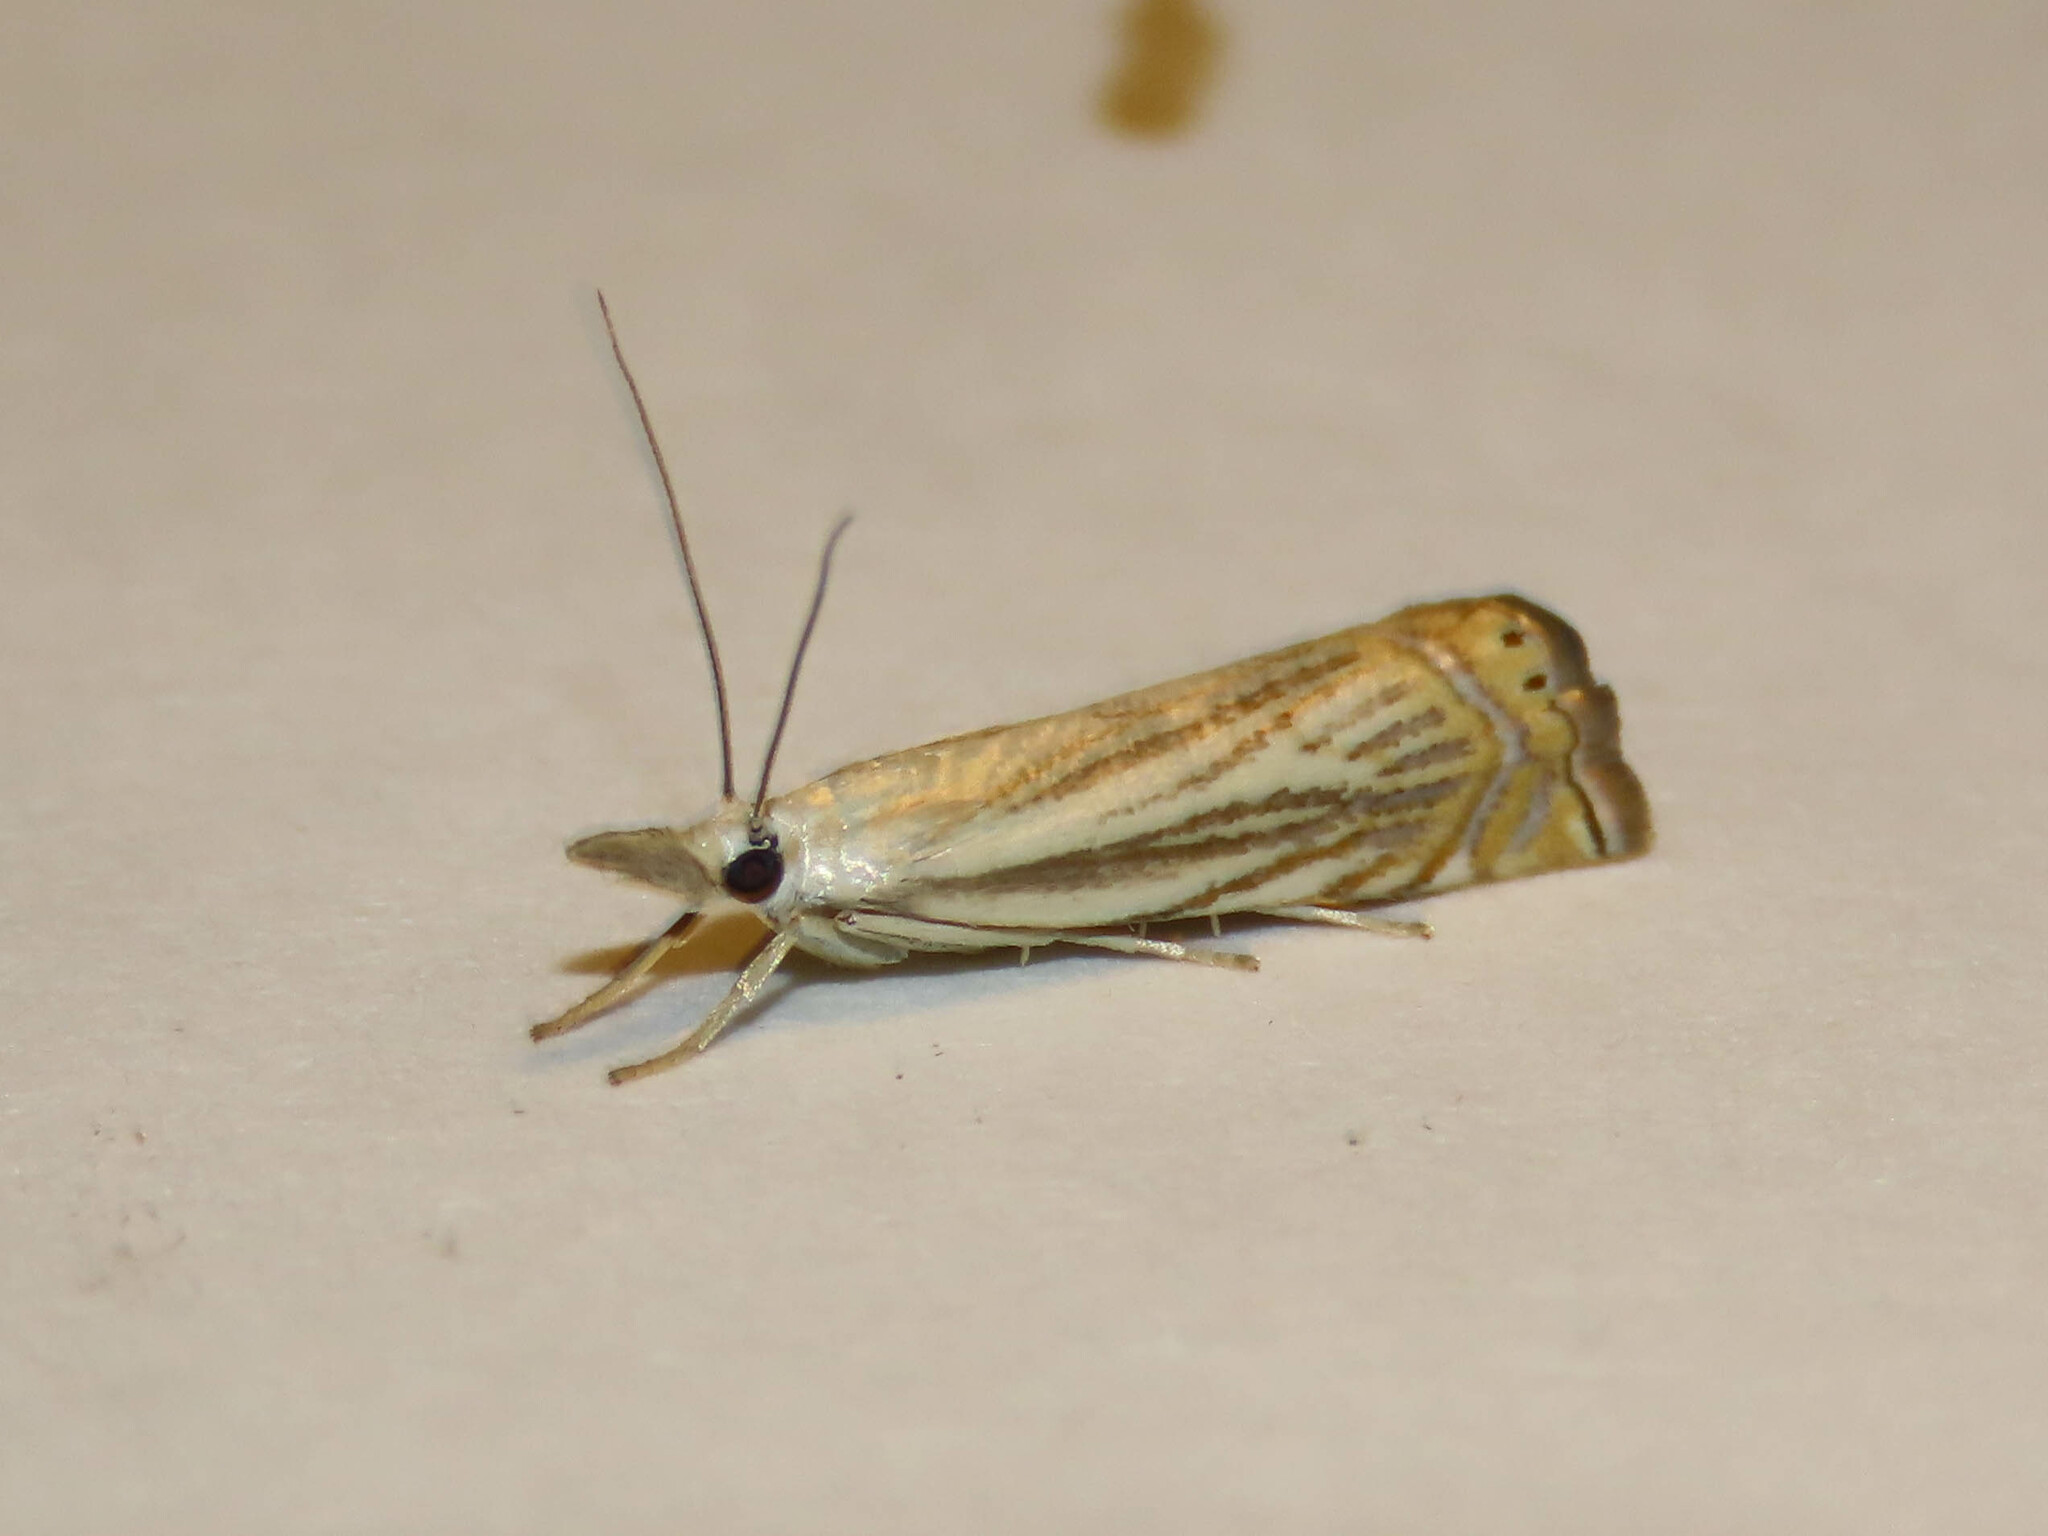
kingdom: Animalia
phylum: Arthropoda
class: Insecta
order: Lepidoptera
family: Crambidae
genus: Chrysoteuchia
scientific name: Chrysoteuchia topiarius
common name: Topiary grass-veneer
